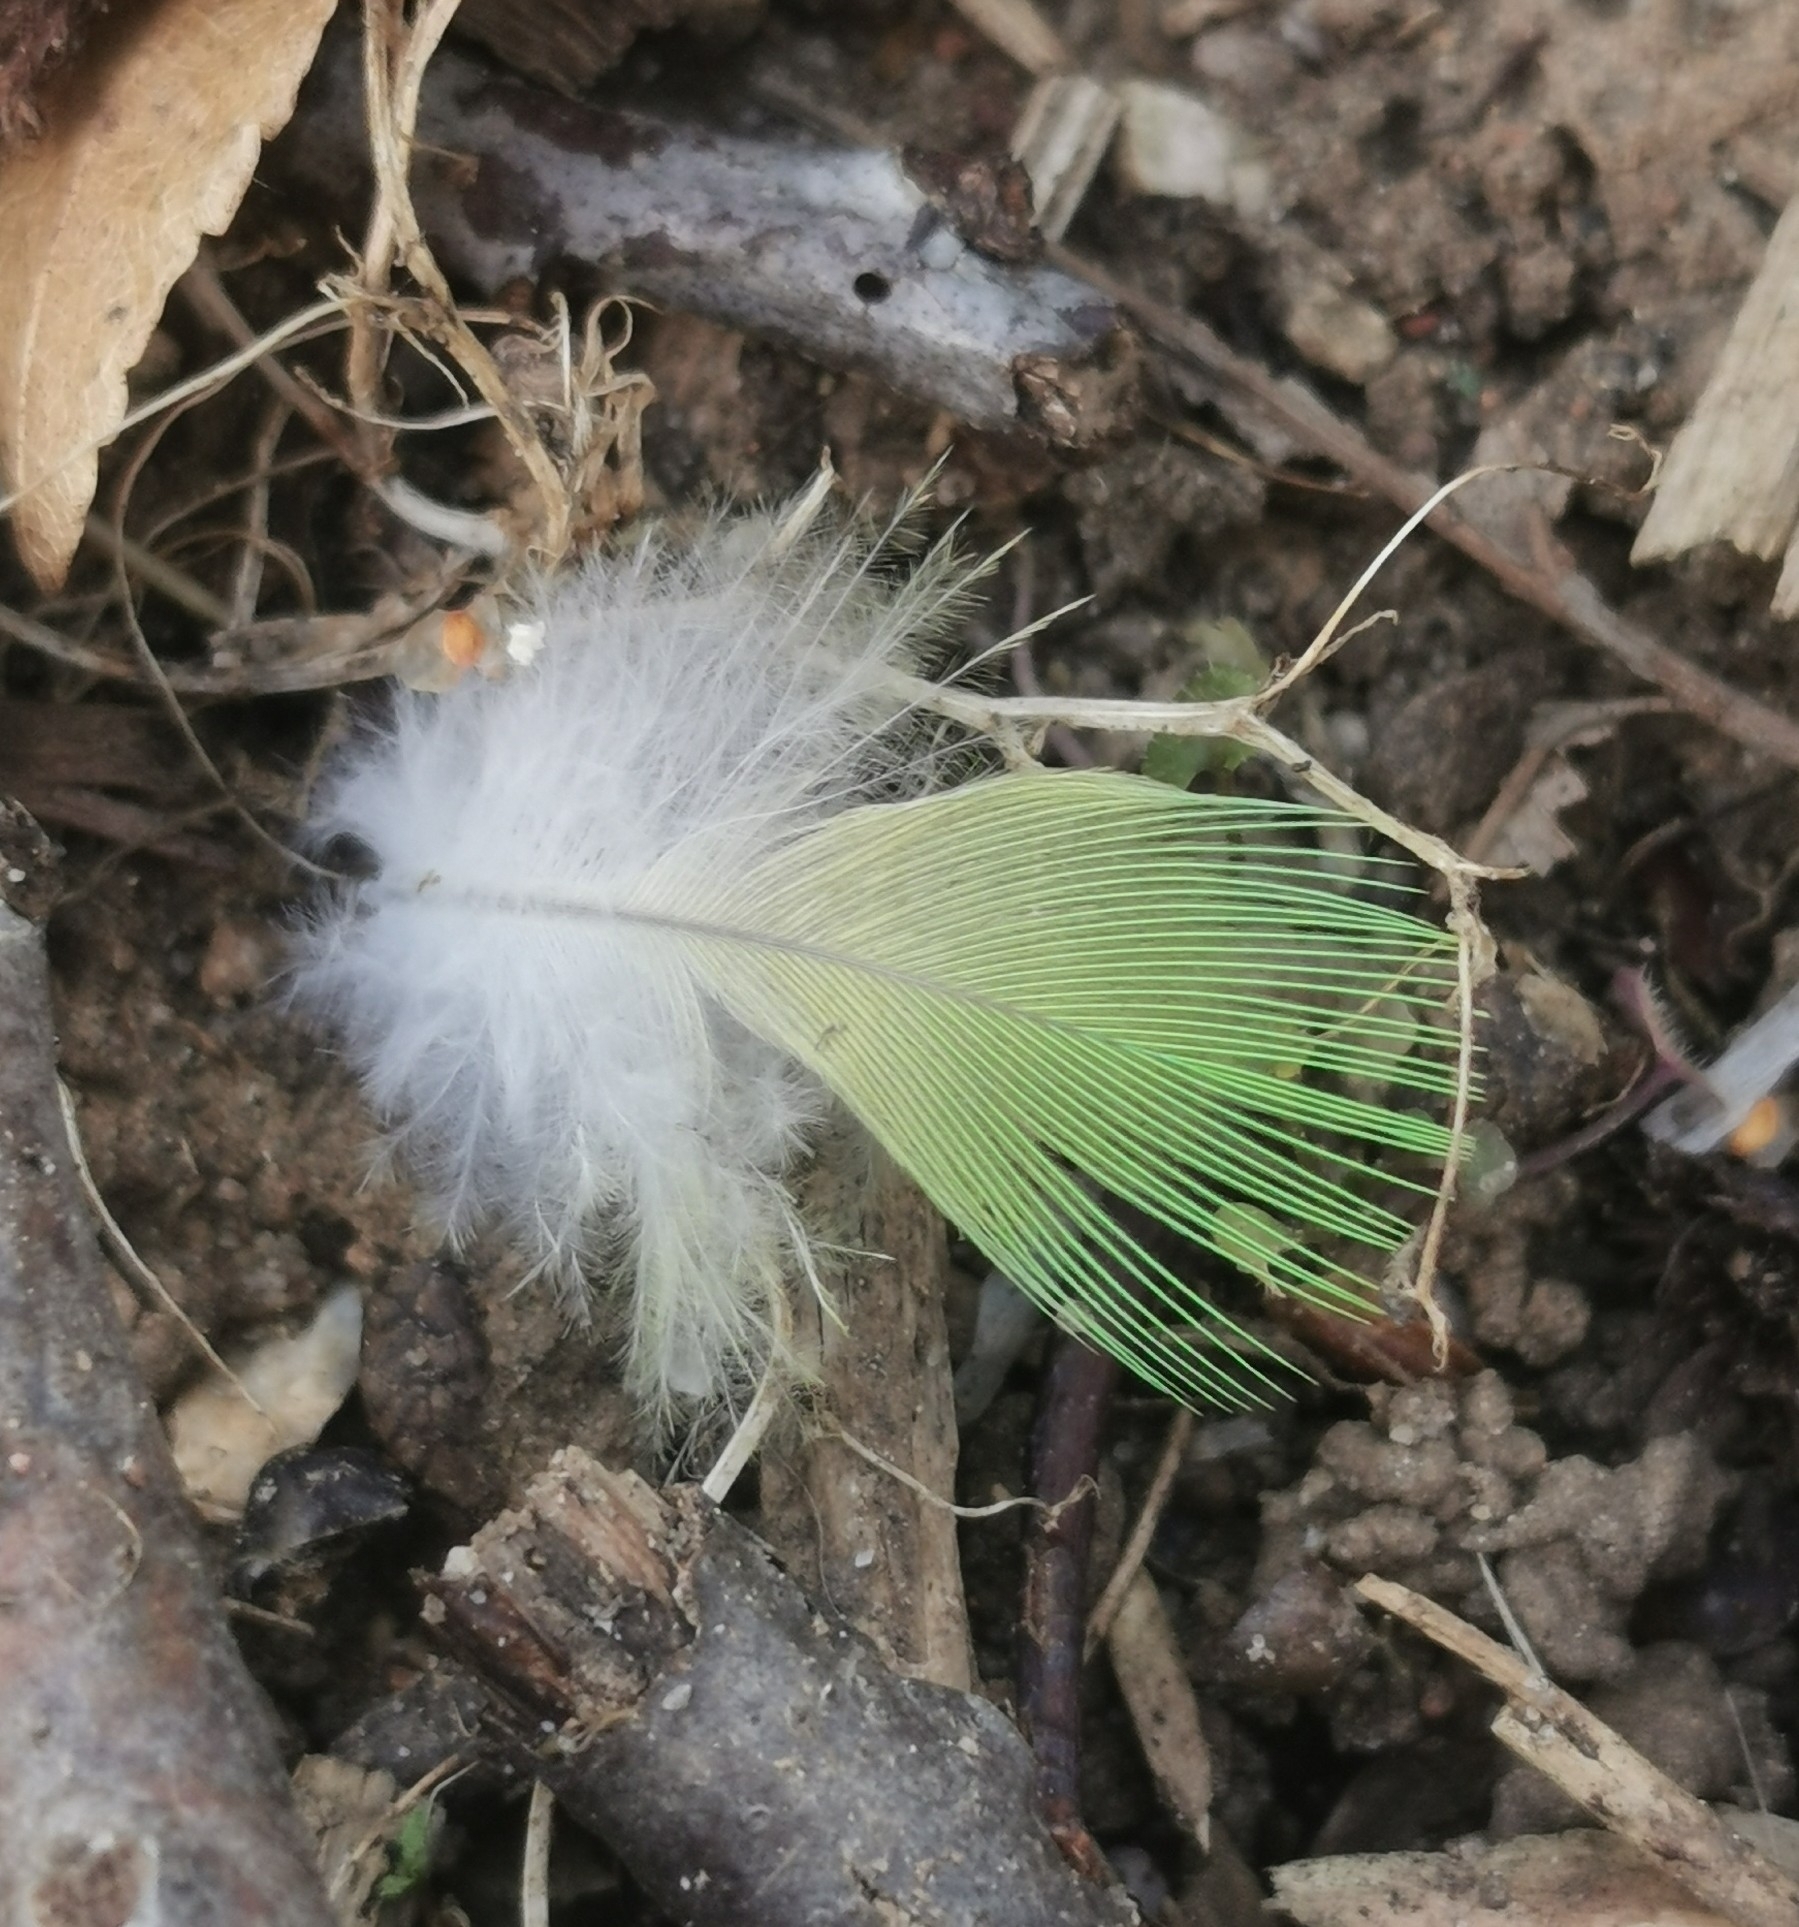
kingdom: Animalia
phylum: Chordata
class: Aves
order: Psittaciformes
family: Psittacidae
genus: Psittacula
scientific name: Psittacula krameri
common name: Rose-ringed parakeet
